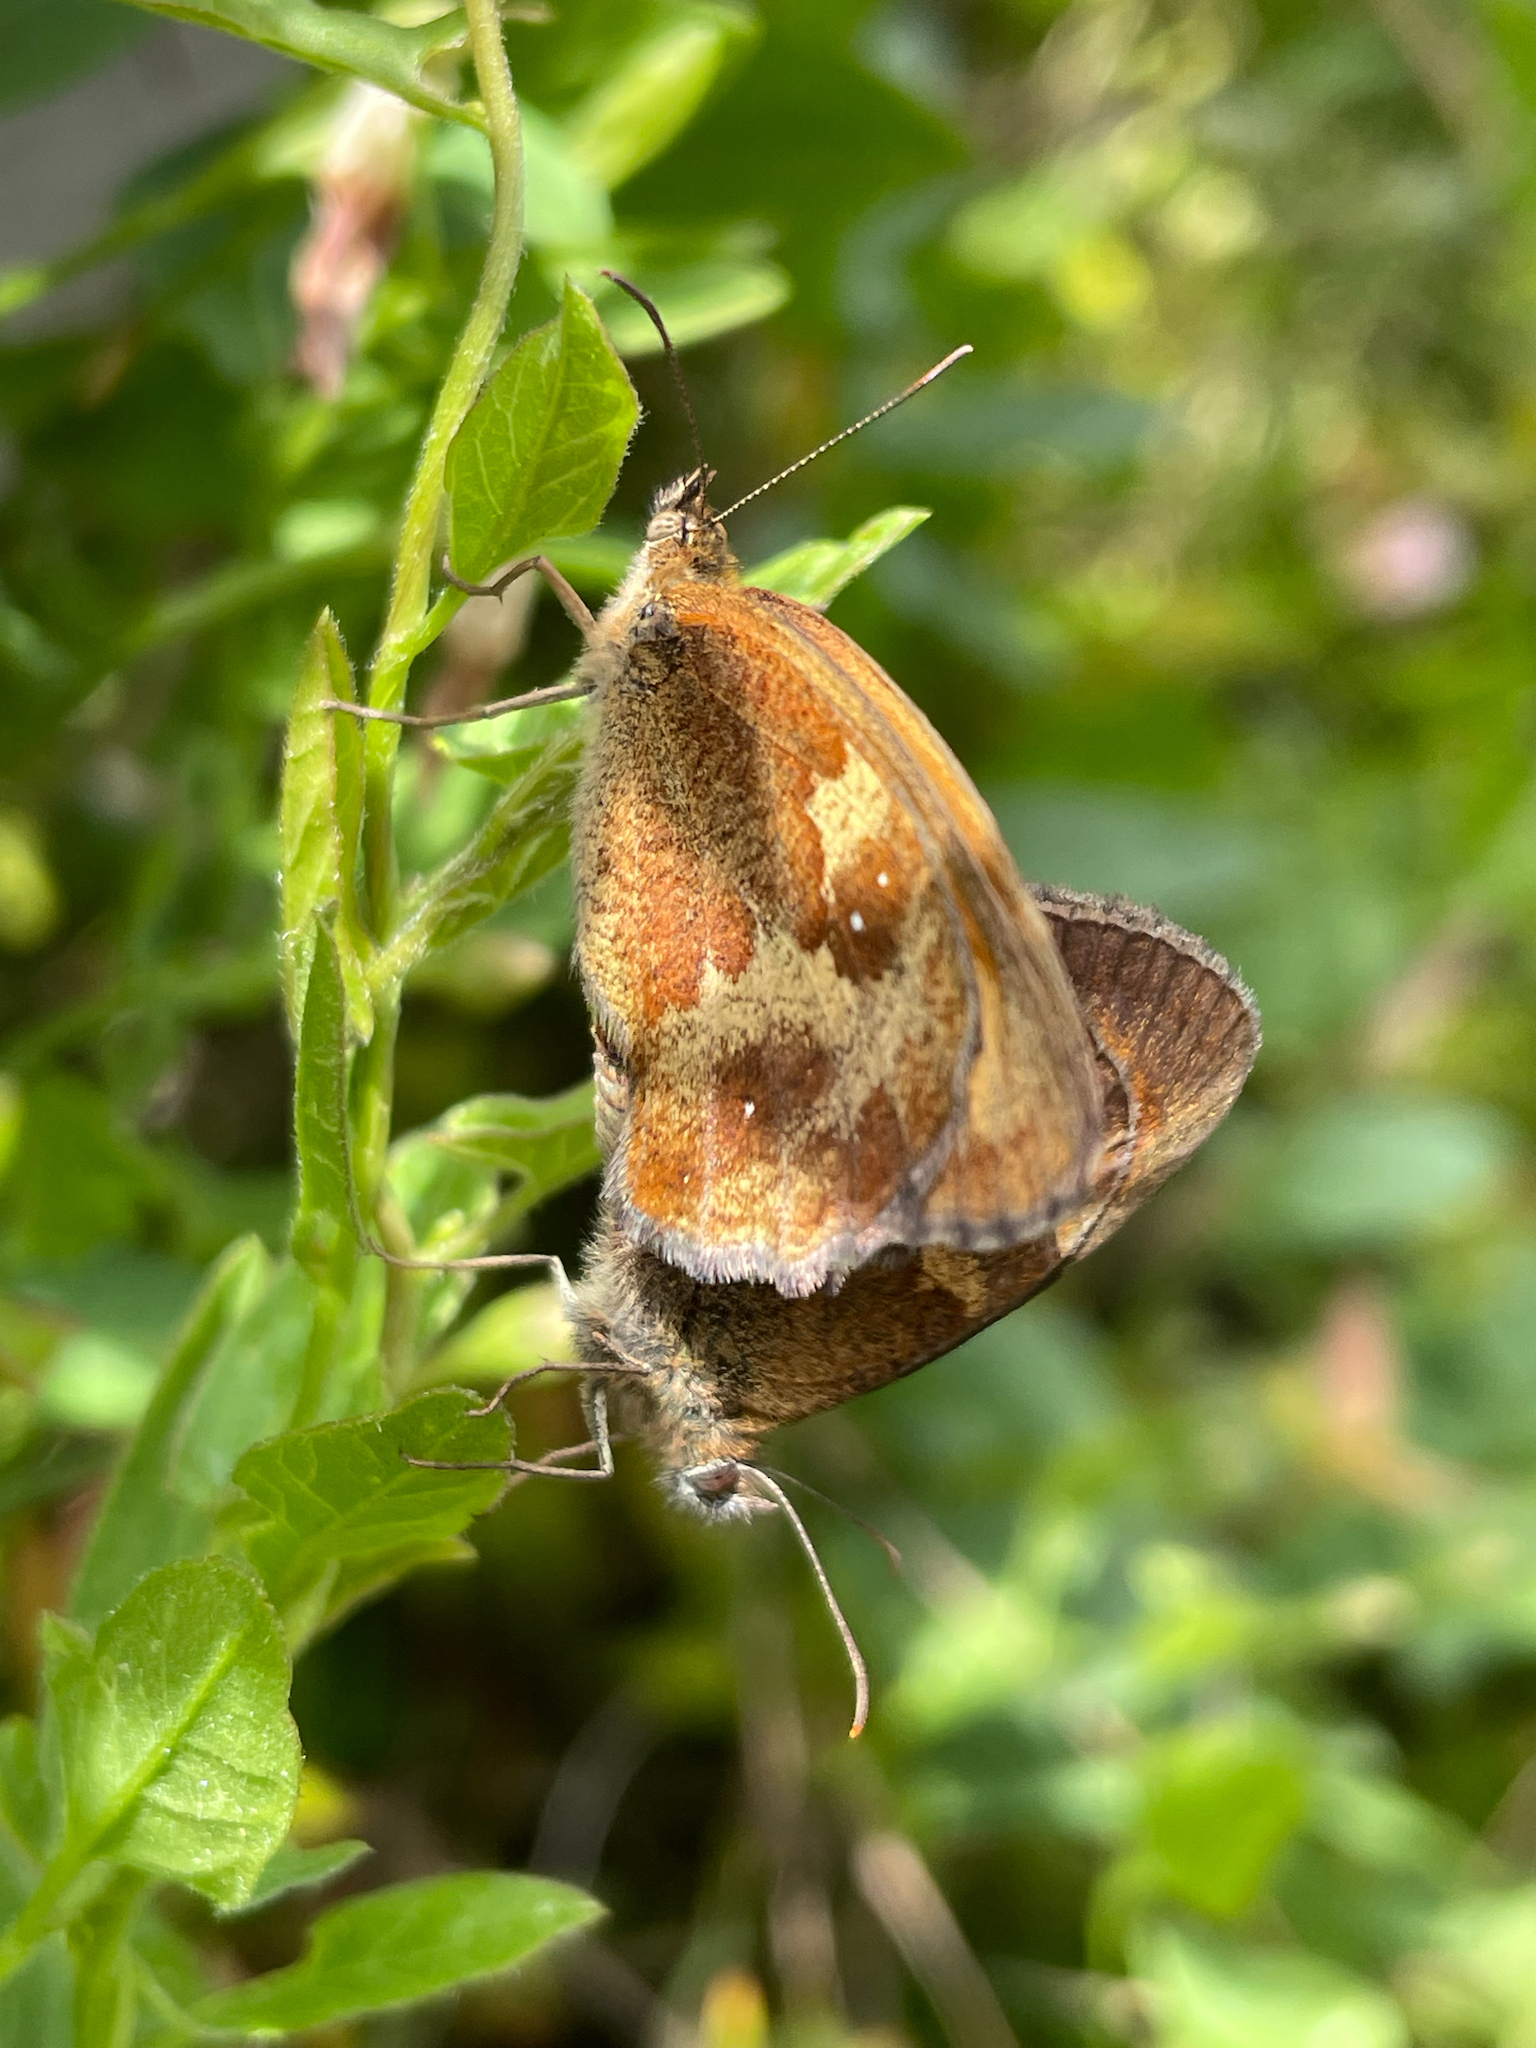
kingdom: Animalia
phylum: Arthropoda
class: Insecta
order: Lepidoptera
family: Nymphalidae
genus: Pyronia
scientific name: Pyronia tithonus
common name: Gatekeeper
